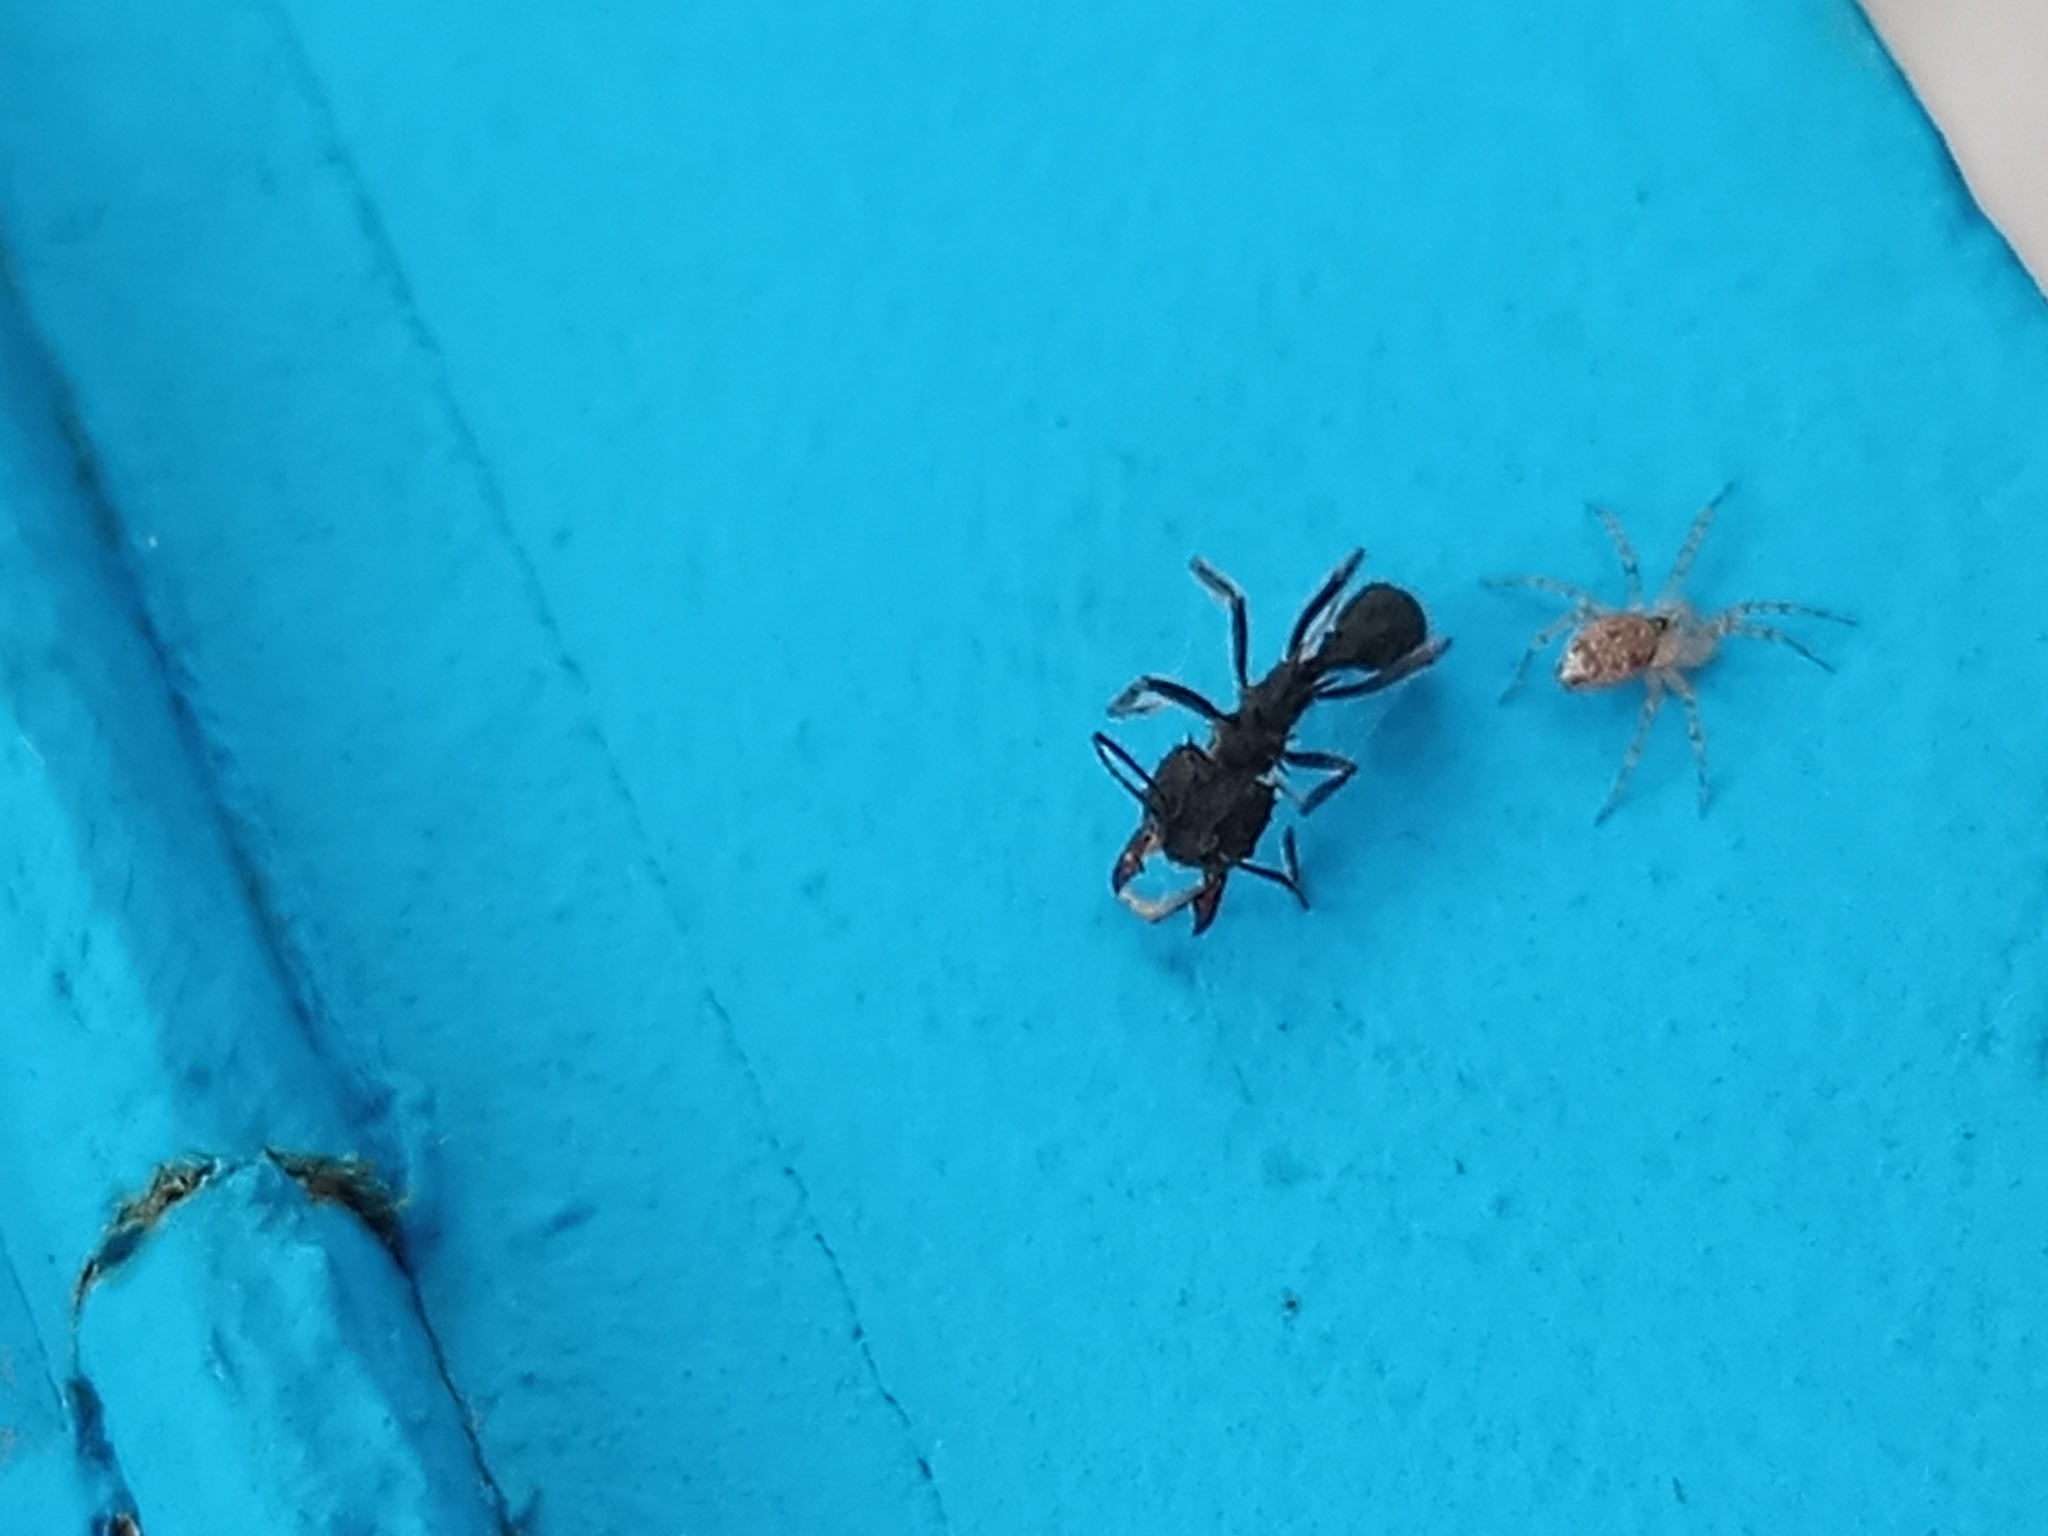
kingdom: Animalia
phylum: Arthropoda
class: Arachnida
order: Araneae
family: Oecobiidae
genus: Oecobius
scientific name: Oecobius navus
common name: Flatmesh weaver
